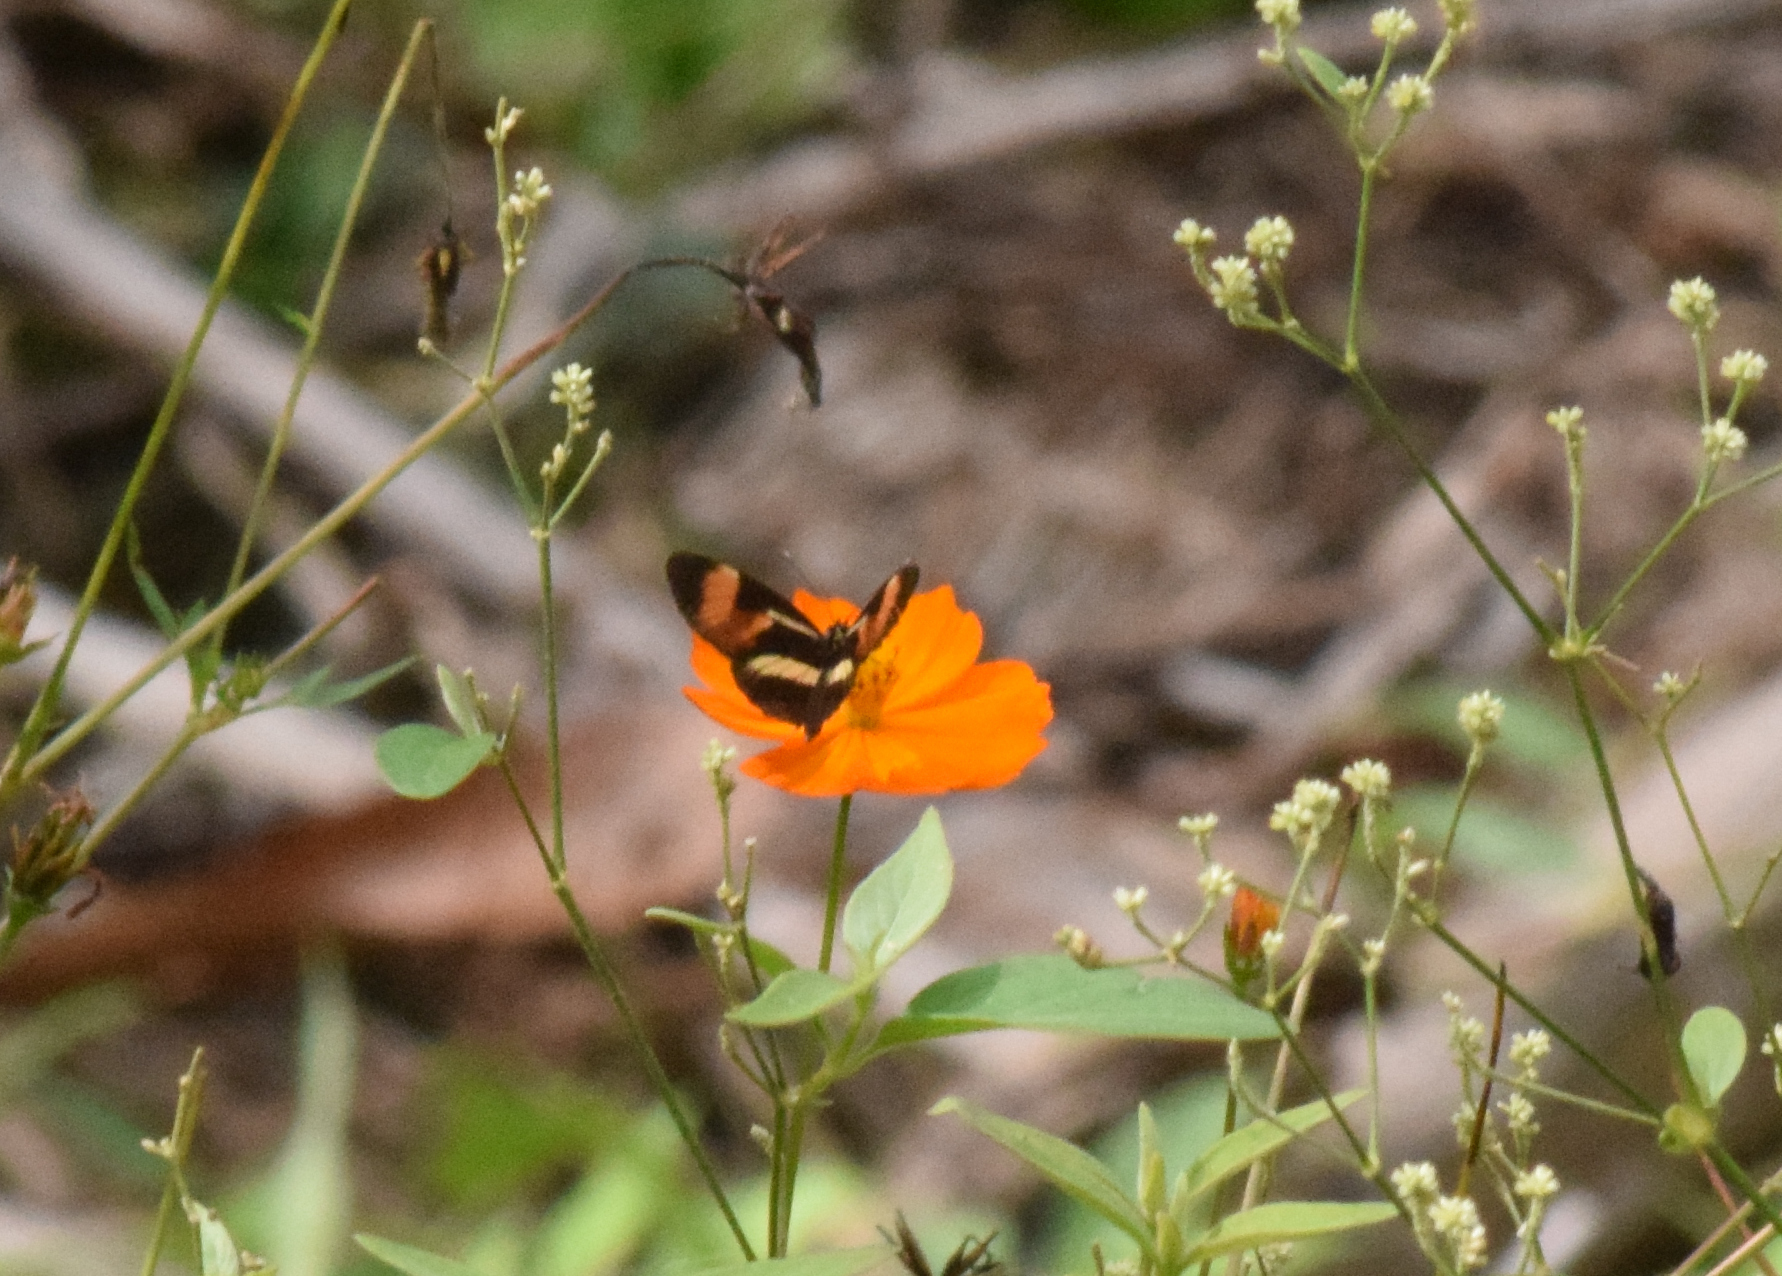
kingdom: Animalia
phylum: Arthropoda
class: Insecta
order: Lepidoptera
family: Nymphalidae
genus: Eresia
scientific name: Eresia lansdorfi
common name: Lansdorf's crescent
